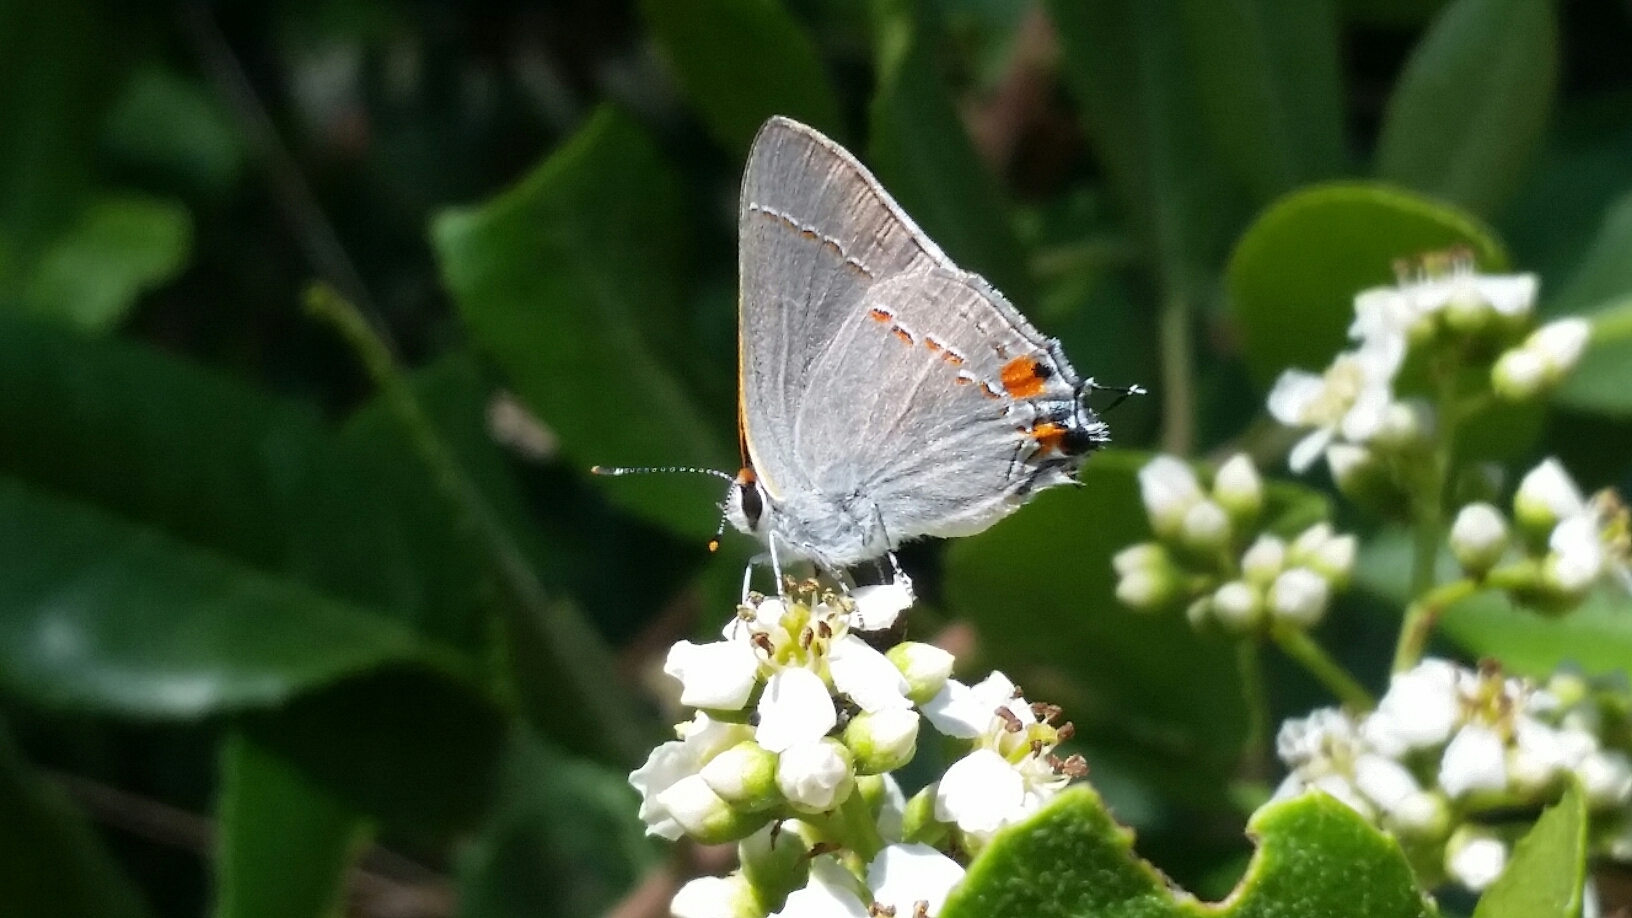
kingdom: Animalia
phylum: Arthropoda
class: Insecta
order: Lepidoptera
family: Lycaenidae
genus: Strymon
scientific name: Strymon melinus
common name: Gray hairstreak
